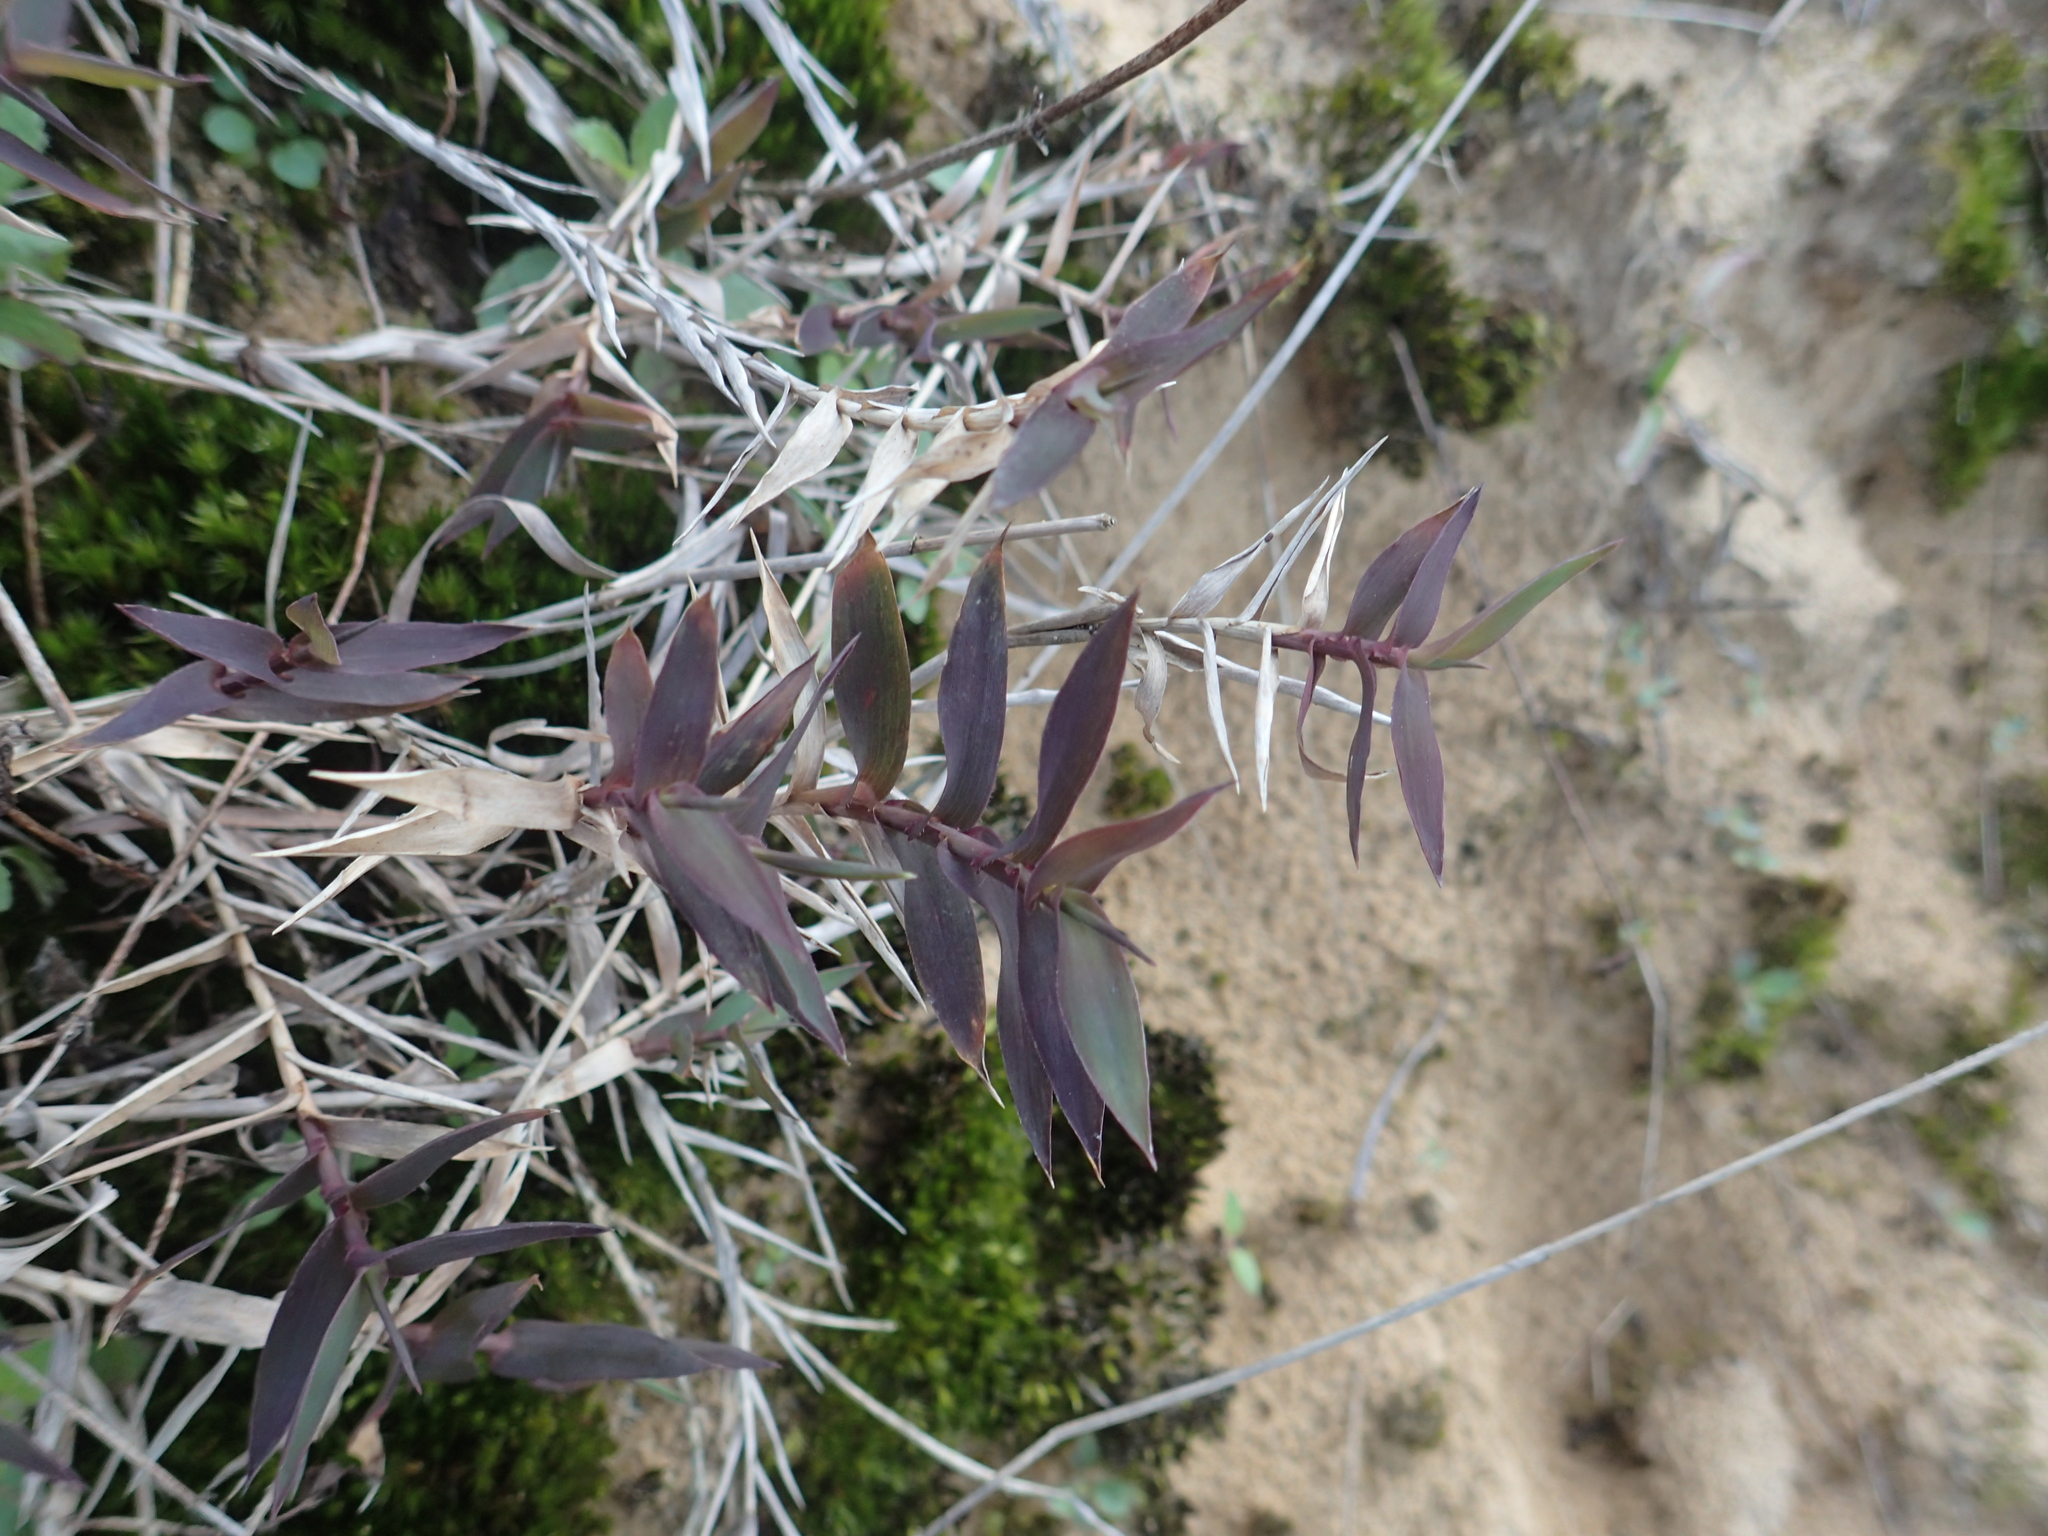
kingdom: Plantae
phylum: Tracheophyta
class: Liliopsida
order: Poales
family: Poaceae
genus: Perotis
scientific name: Perotis rara
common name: Comet grass
